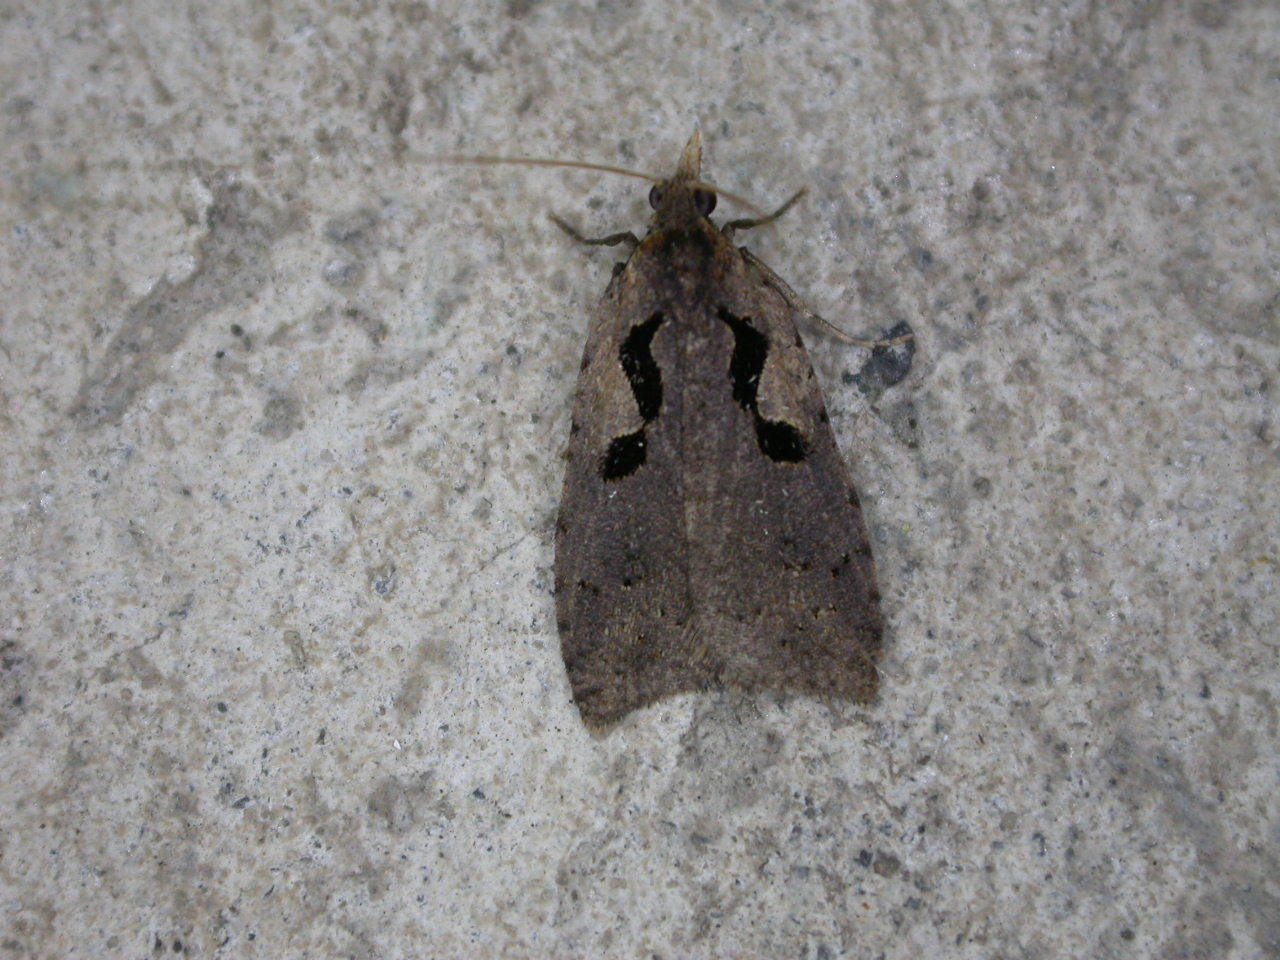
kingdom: Animalia
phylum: Arthropoda
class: Insecta
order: Lepidoptera
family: Tortricidae
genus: Cnephasia
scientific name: Cnephasia jactatana
